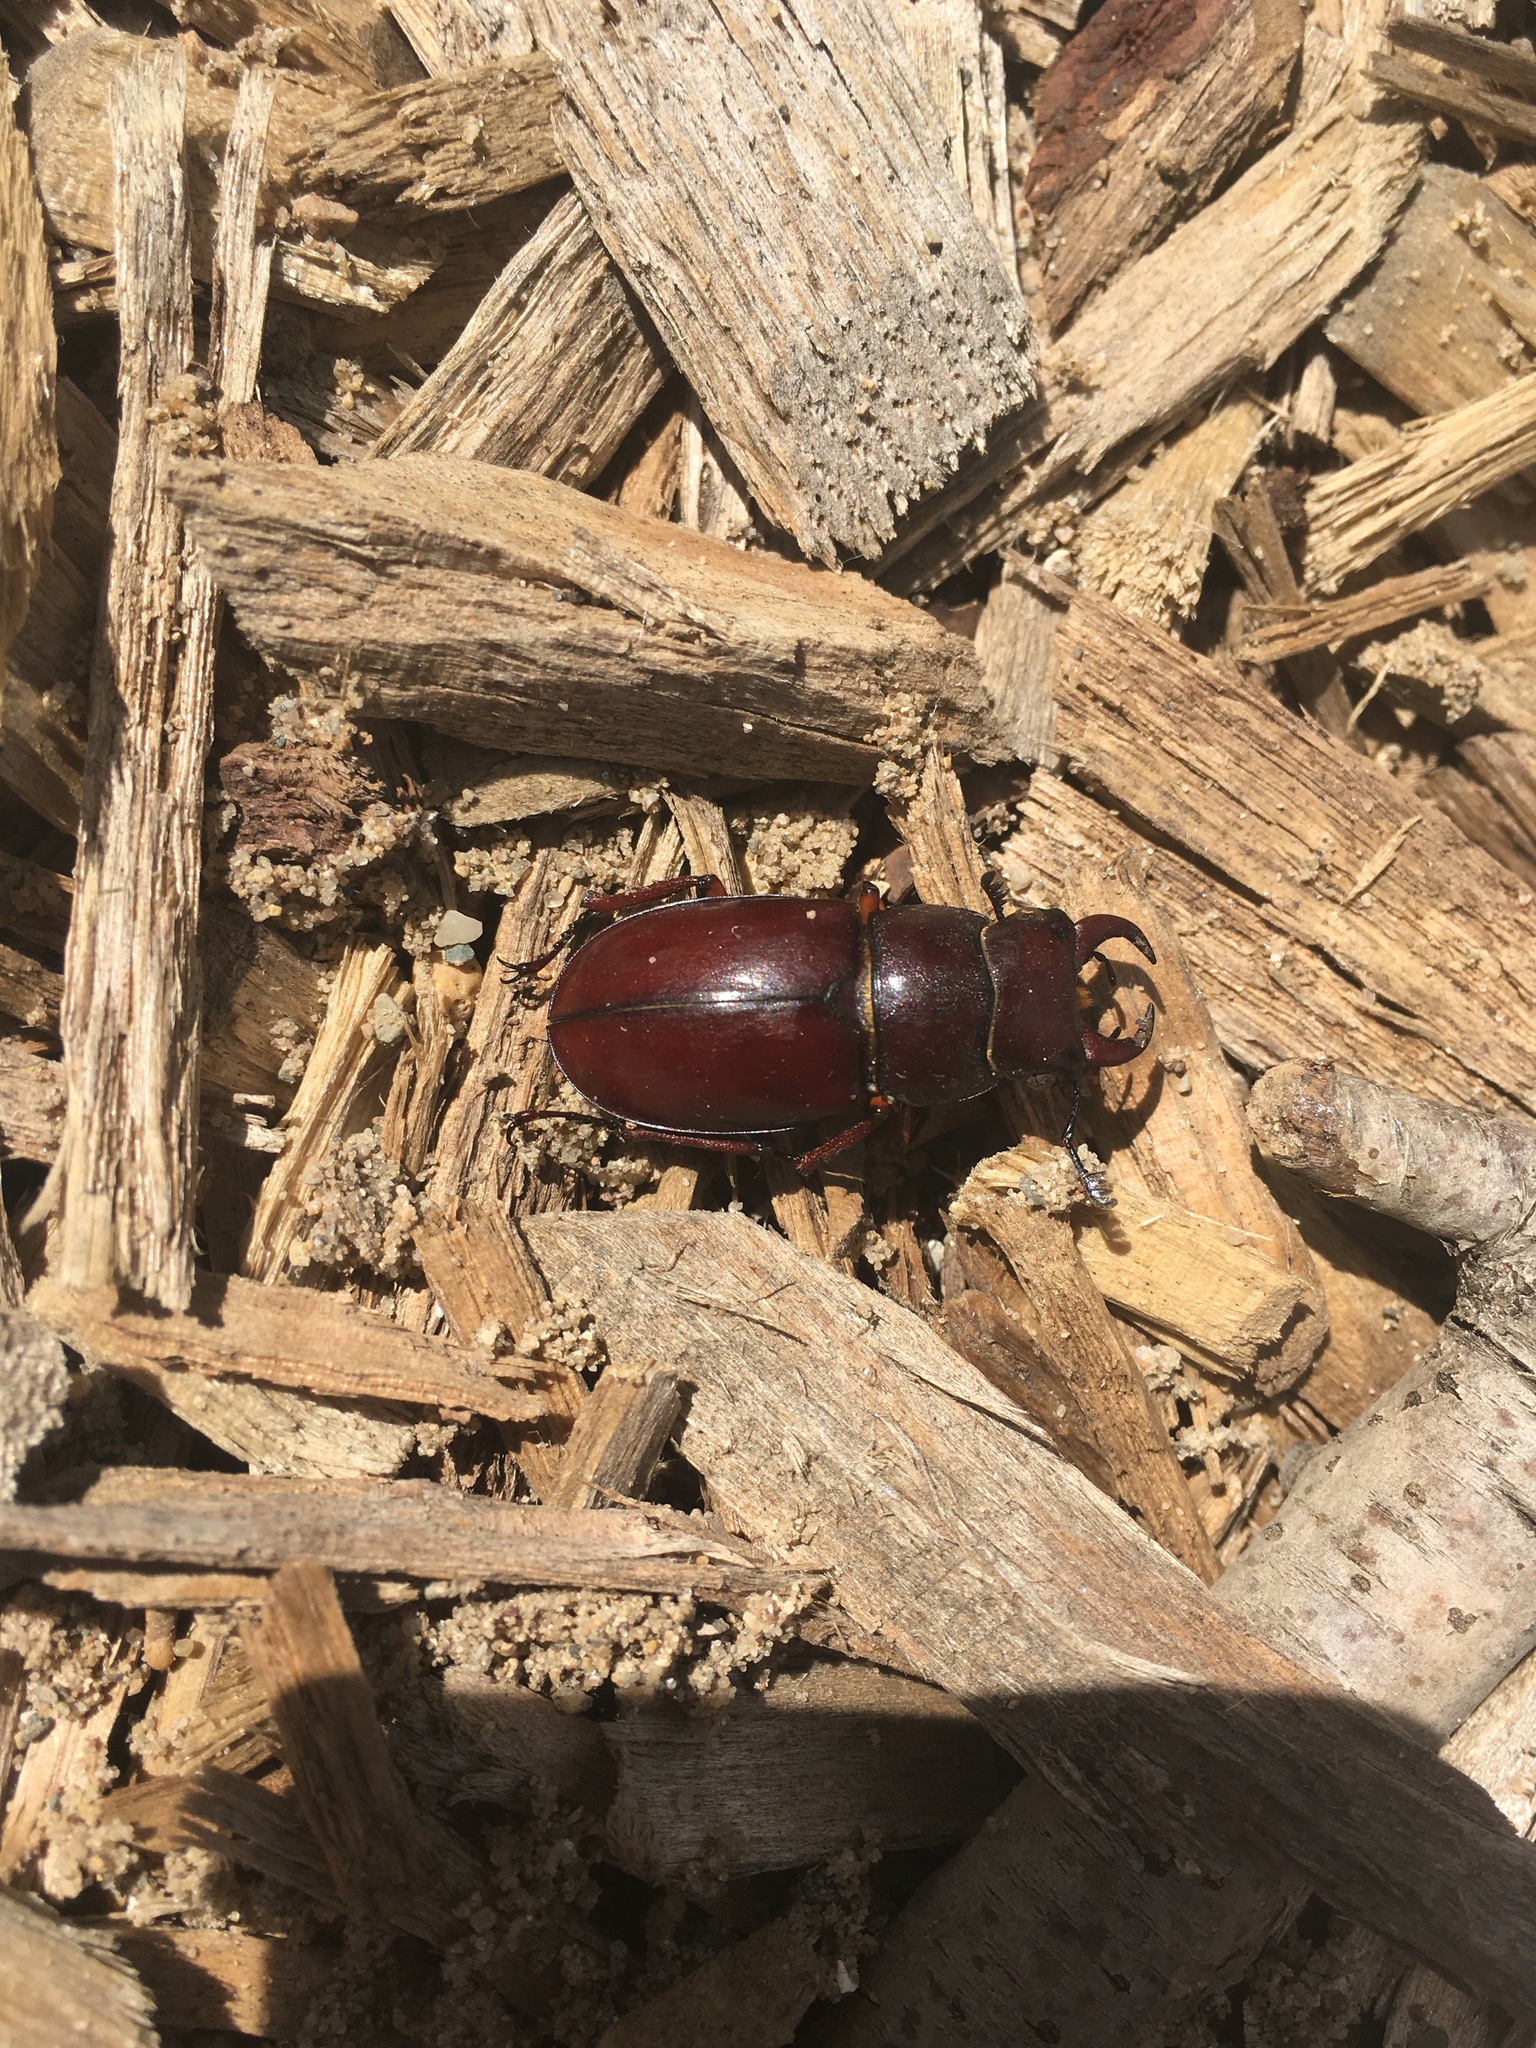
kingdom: Animalia
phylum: Arthropoda
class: Insecta
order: Coleoptera
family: Lucanidae
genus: Lucanus
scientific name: Lucanus capreolus
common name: Stag beetle
